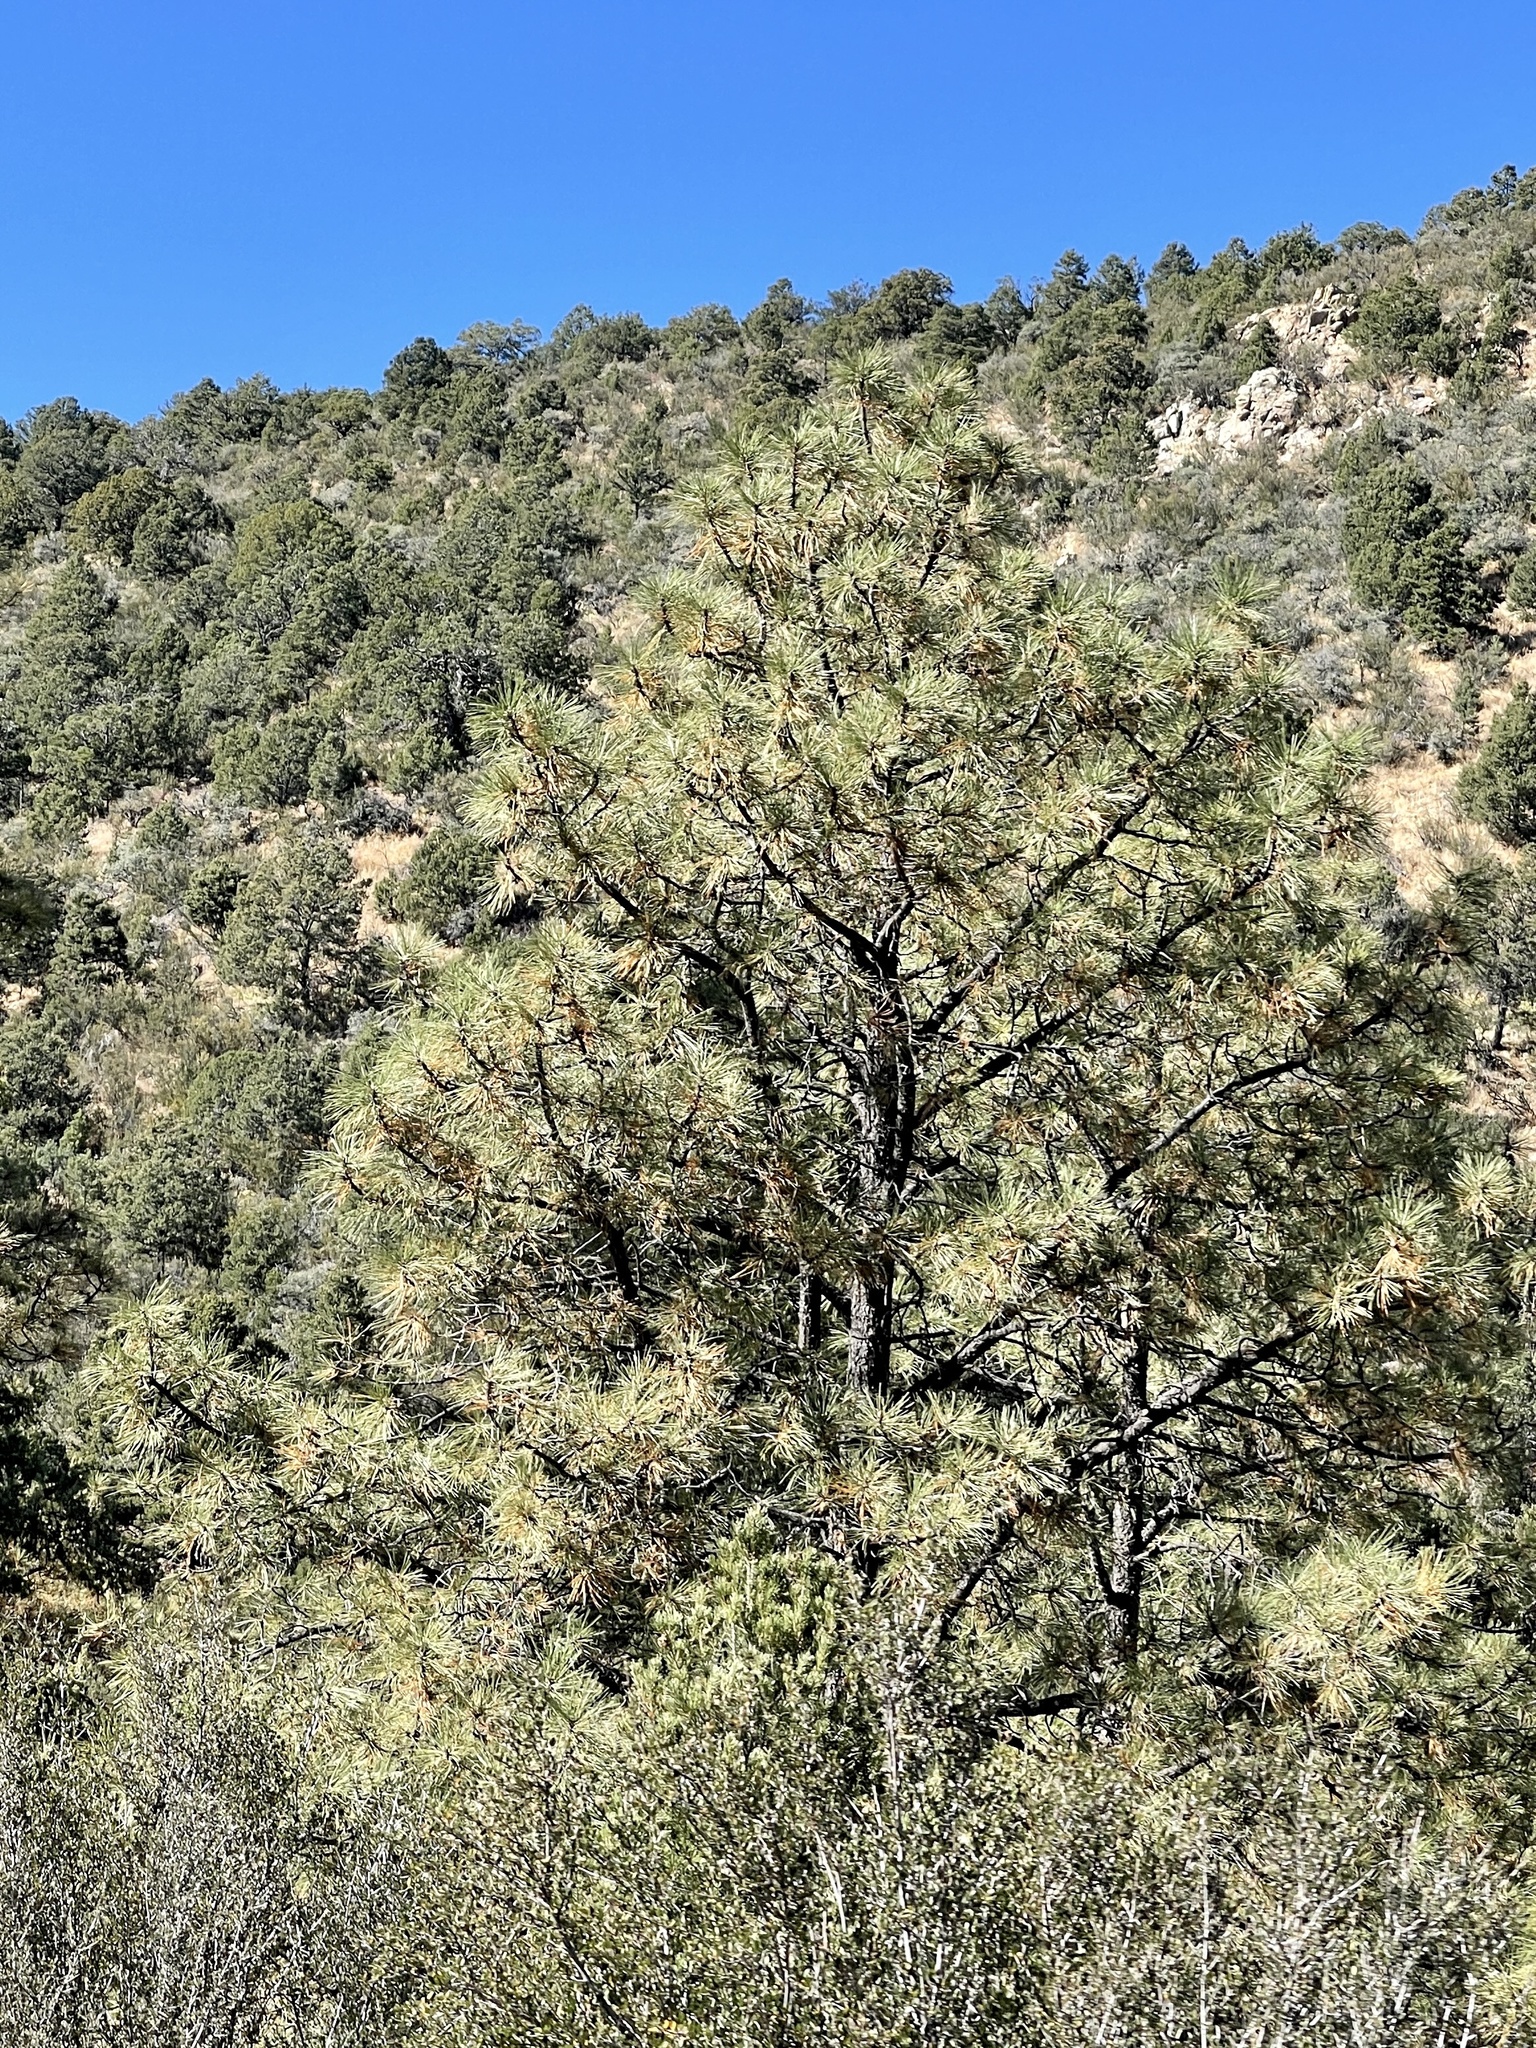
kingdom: Plantae
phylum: Tracheophyta
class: Pinopsida
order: Pinales
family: Pinaceae
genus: Pinus
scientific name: Pinus ponderosa
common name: Western yellow-pine
